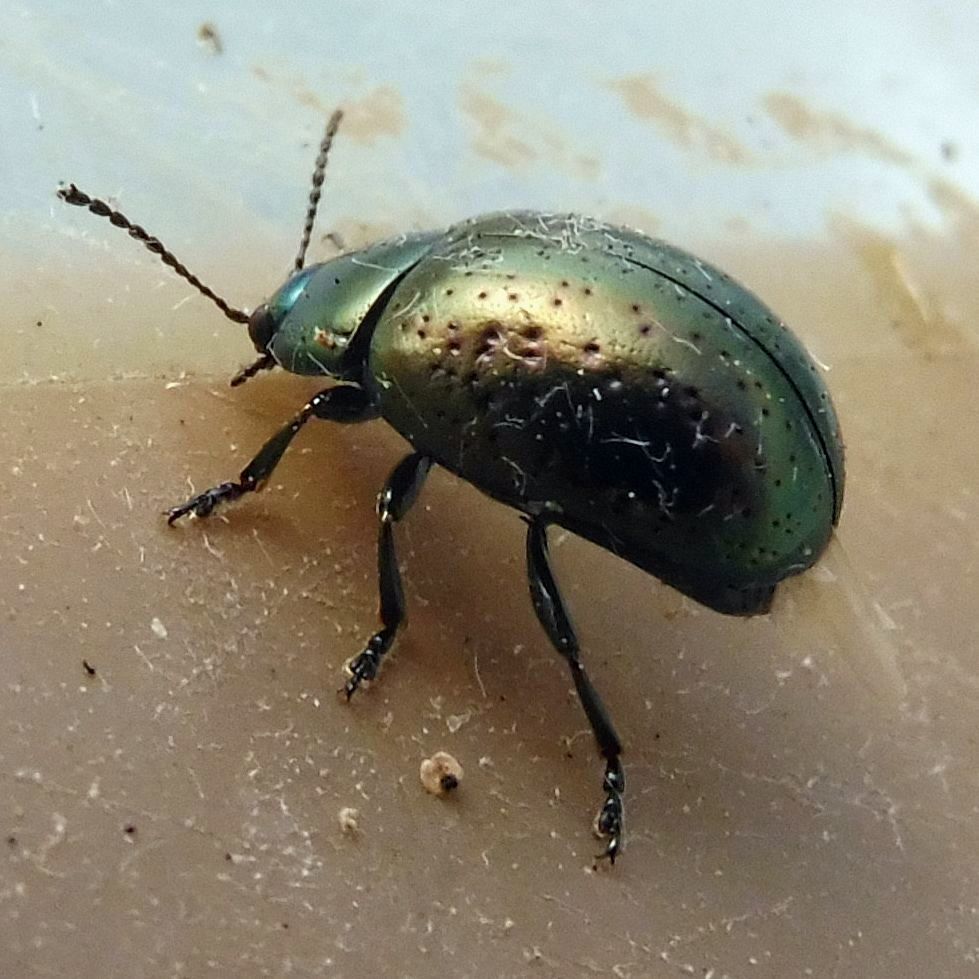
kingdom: Animalia
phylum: Arthropoda
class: Insecta
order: Coleoptera
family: Chrysomelidae
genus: Chrysolina
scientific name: Chrysolina hyperici
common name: St. johnswort beetle
